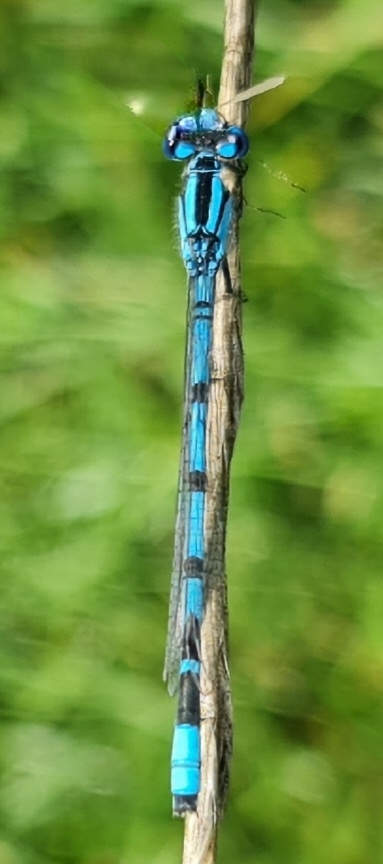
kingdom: Animalia
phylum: Arthropoda
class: Insecta
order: Odonata
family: Coenagrionidae
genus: Enallagma
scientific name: Enallagma cyathigerum
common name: Common blue damselfly
